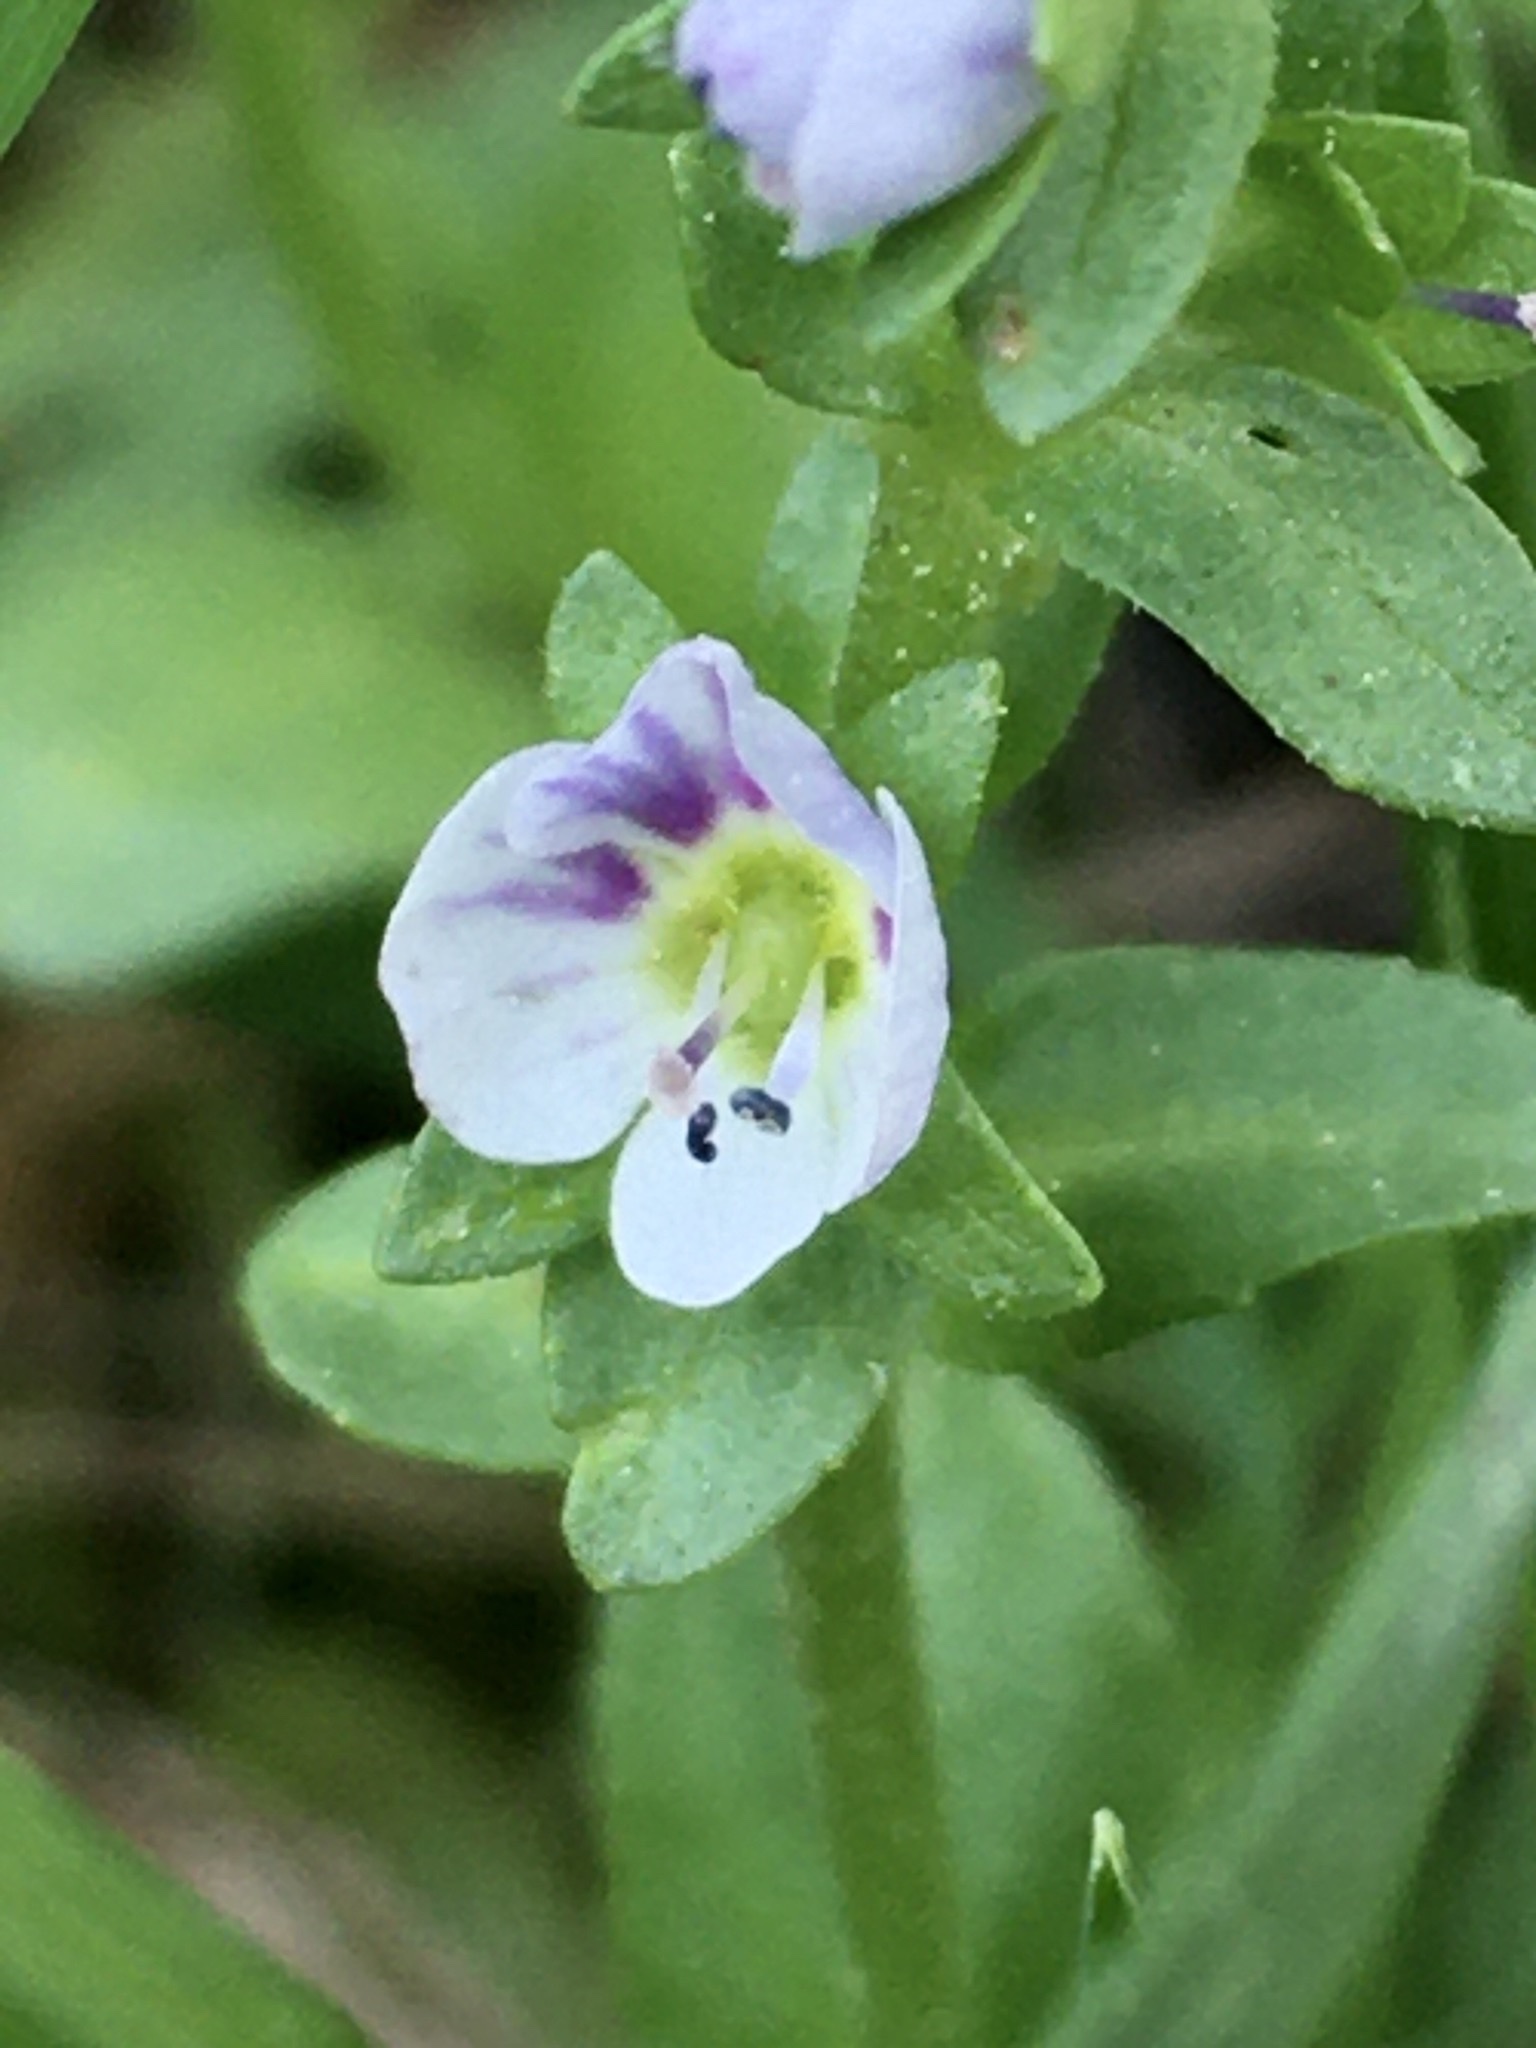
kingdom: Plantae
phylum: Tracheophyta
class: Magnoliopsida
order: Lamiales
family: Plantaginaceae
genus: Veronica
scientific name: Veronica serpyllifolia
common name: Thyme-leaved speedwell
